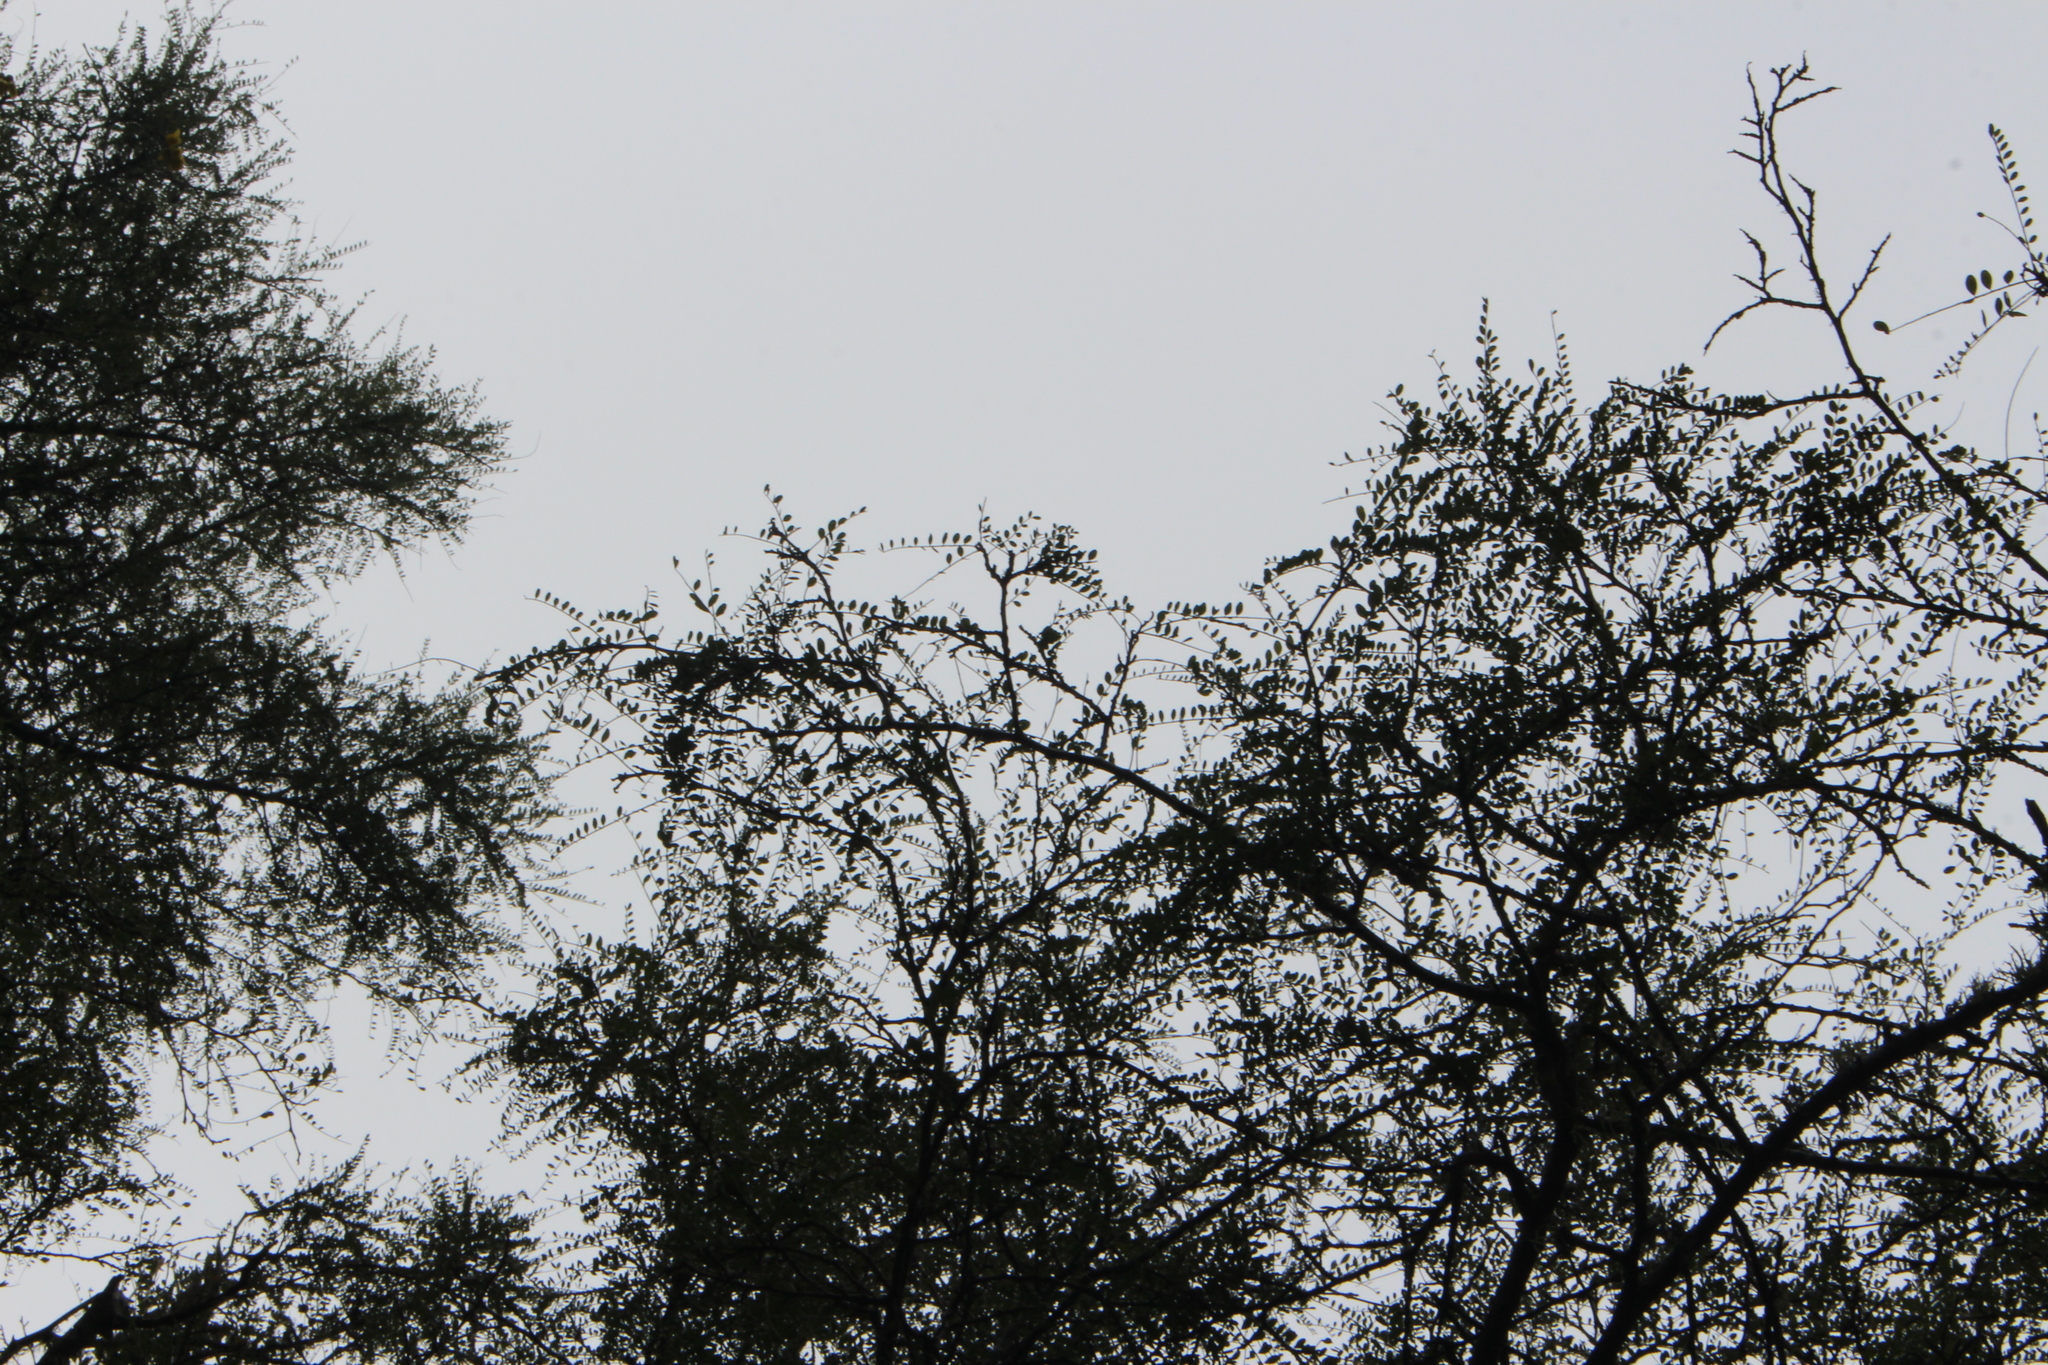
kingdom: Plantae
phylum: Tracheophyta
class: Magnoliopsida
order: Fabales
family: Fabaceae
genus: Sophora
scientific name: Sophora microphylla
